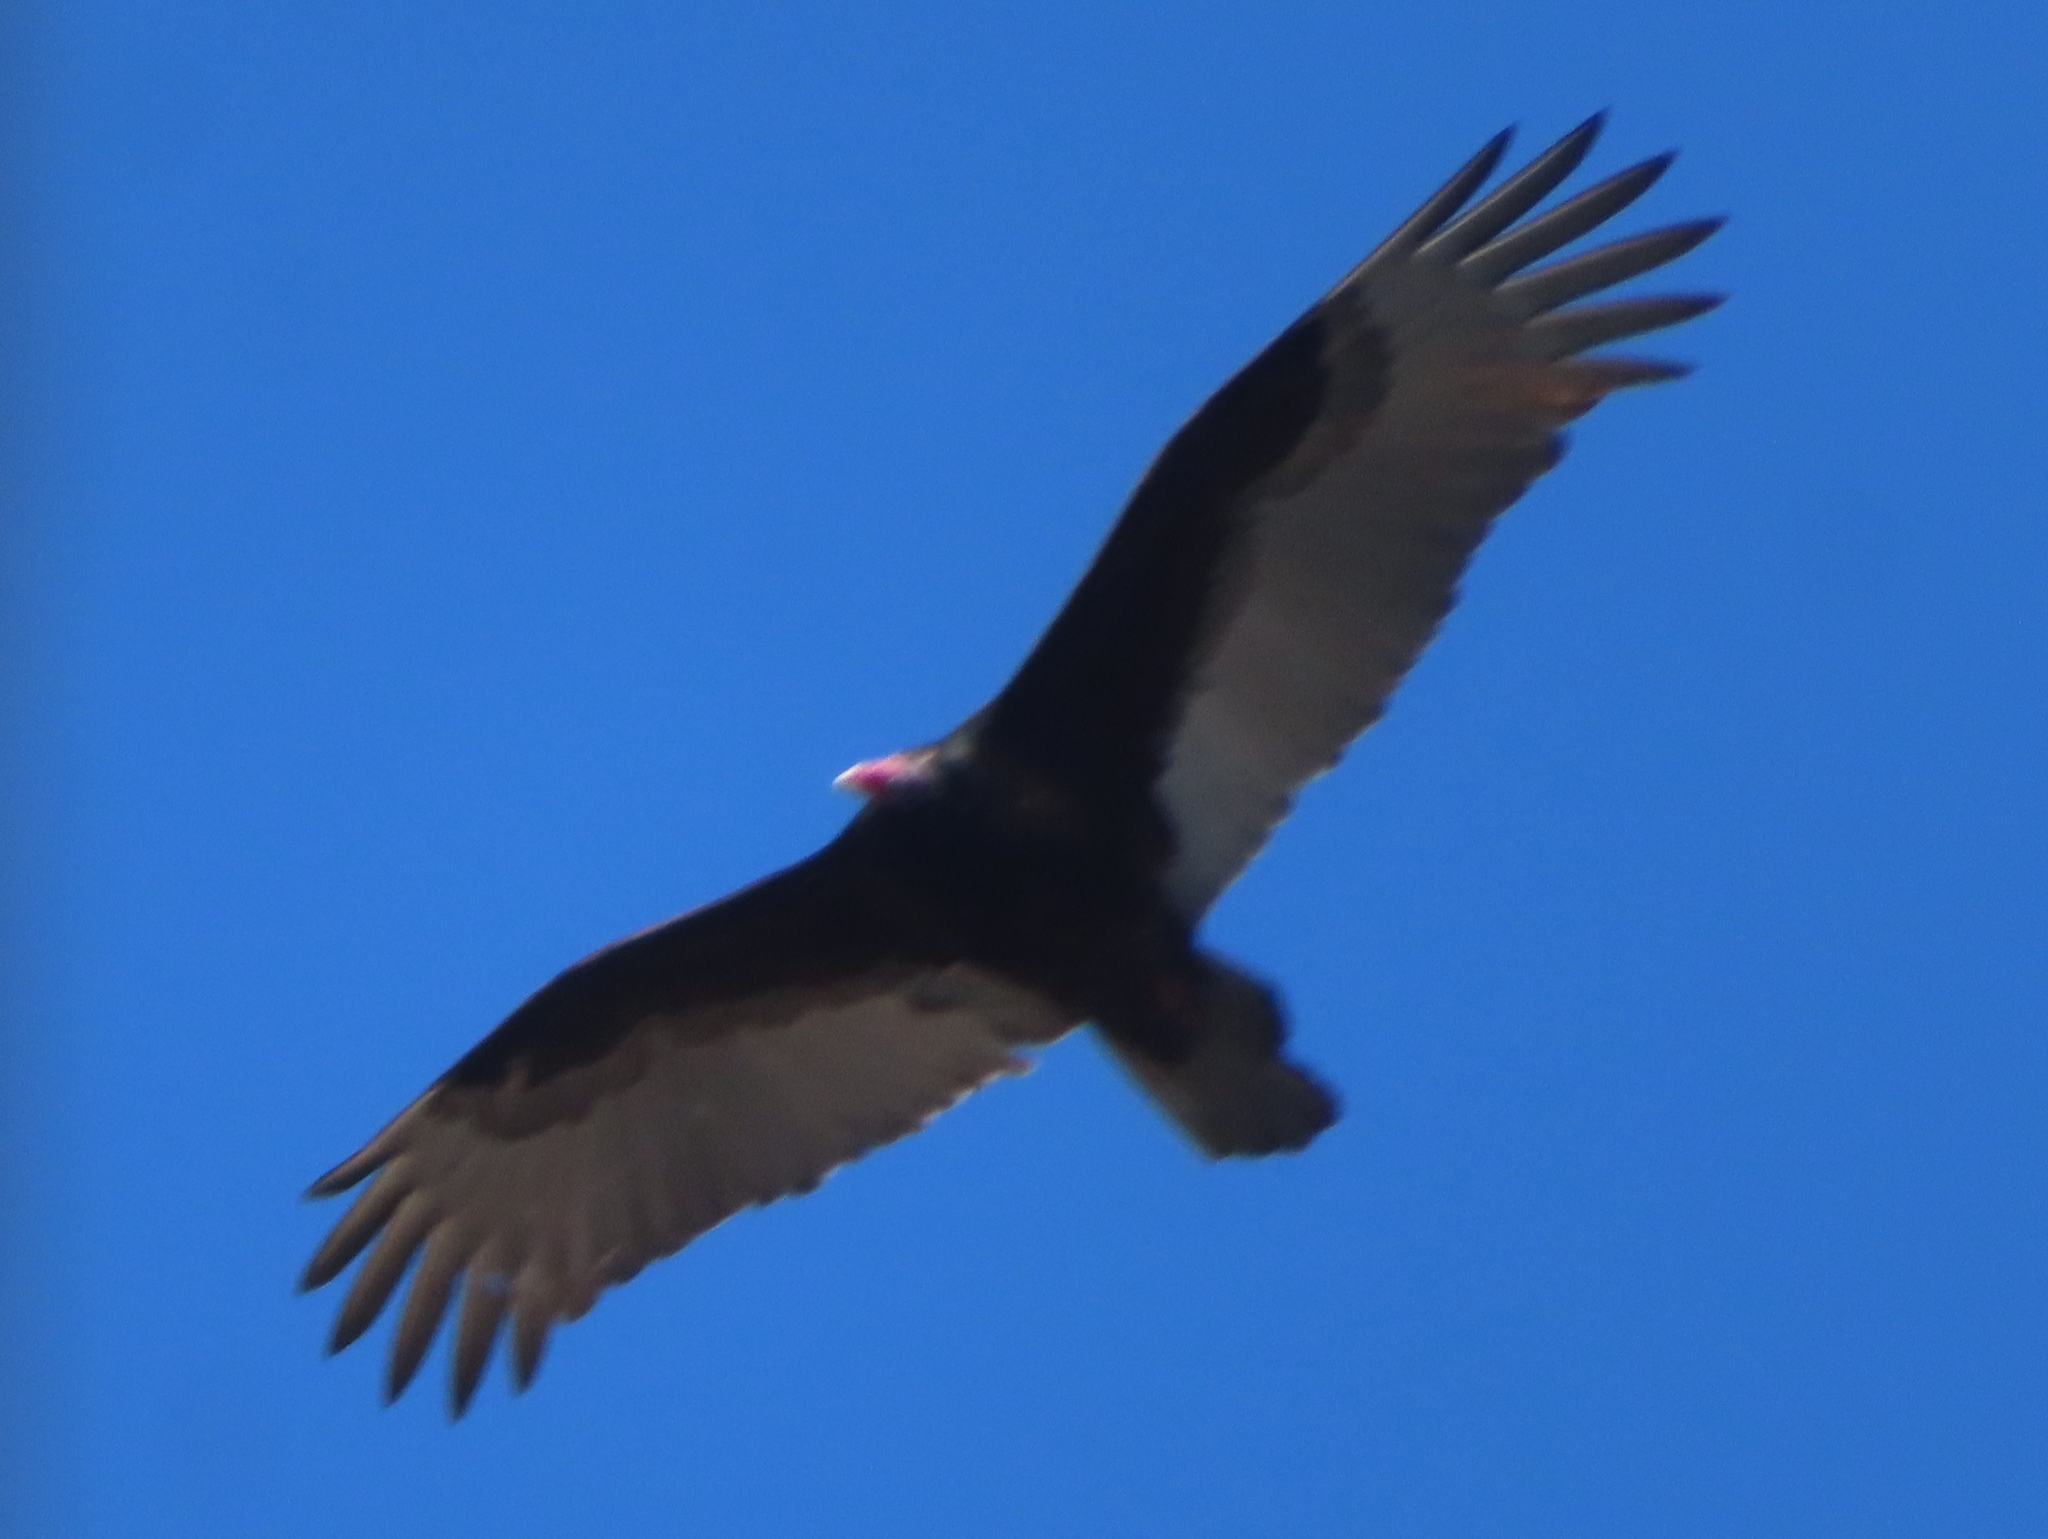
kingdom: Animalia
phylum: Chordata
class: Aves
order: Accipitriformes
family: Cathartidae
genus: Cathartes
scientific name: Cathartes aura
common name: Turkey vulture
